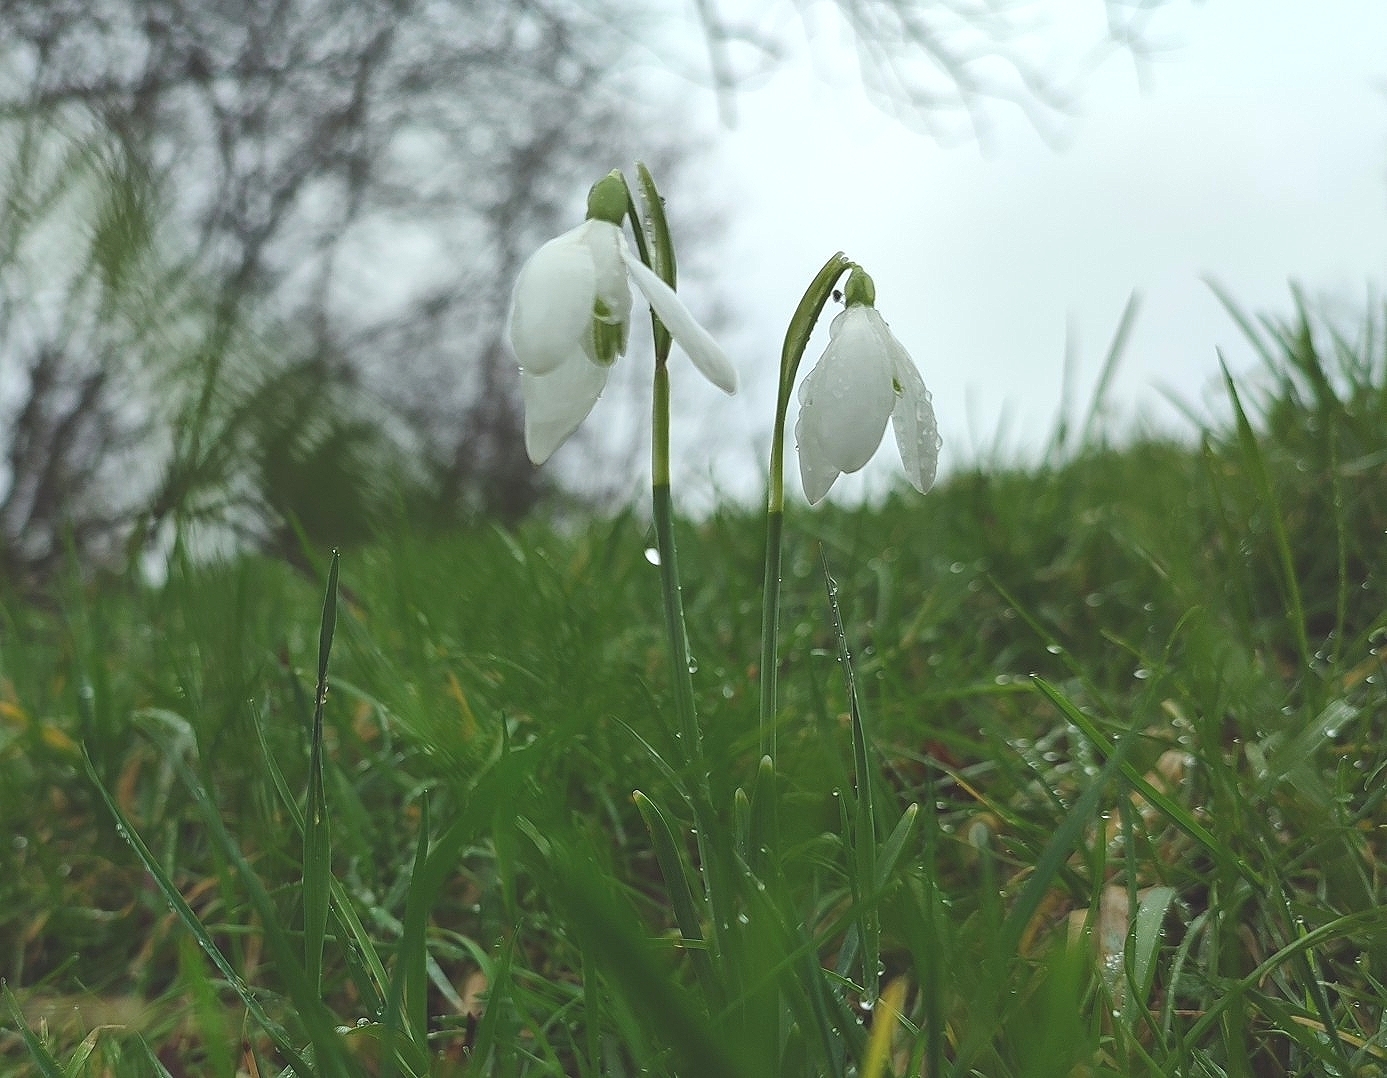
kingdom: Plantae
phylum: Tracheophyta
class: Liliopsida
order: Asparagales
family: Amaryllidaceae
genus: Galanthus
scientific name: Galanthus nivalis
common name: Snowdrop
